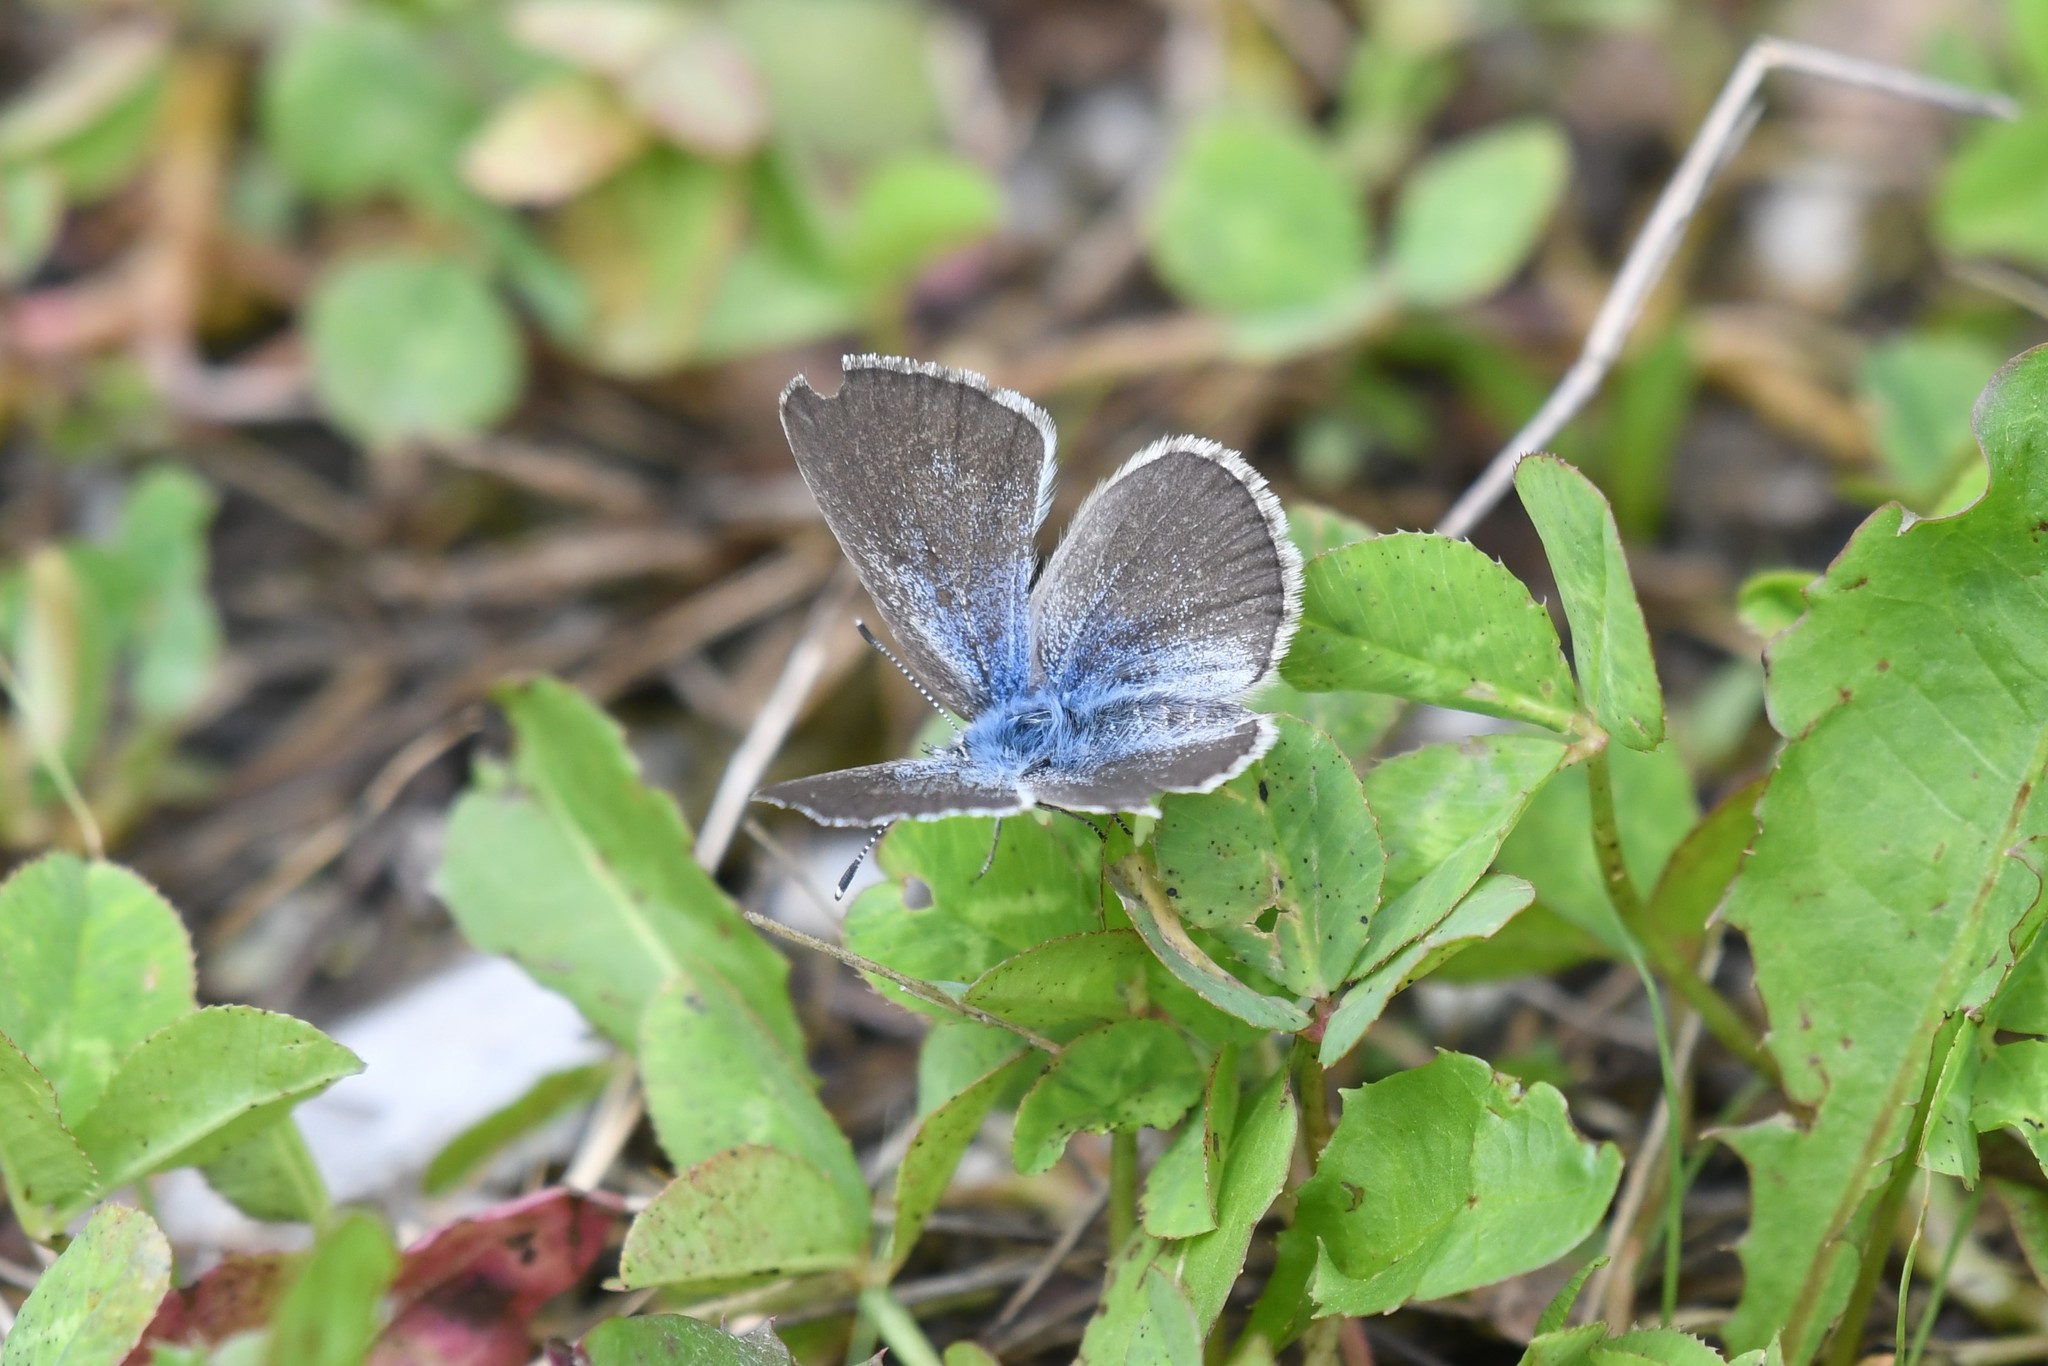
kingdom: Animalia
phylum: Arthropoda
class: Insecta
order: Lepidoptera
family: Lycaenidae
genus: Glaucopsyche
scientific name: Glaucopsyche lygdamus
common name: Silvery blue
